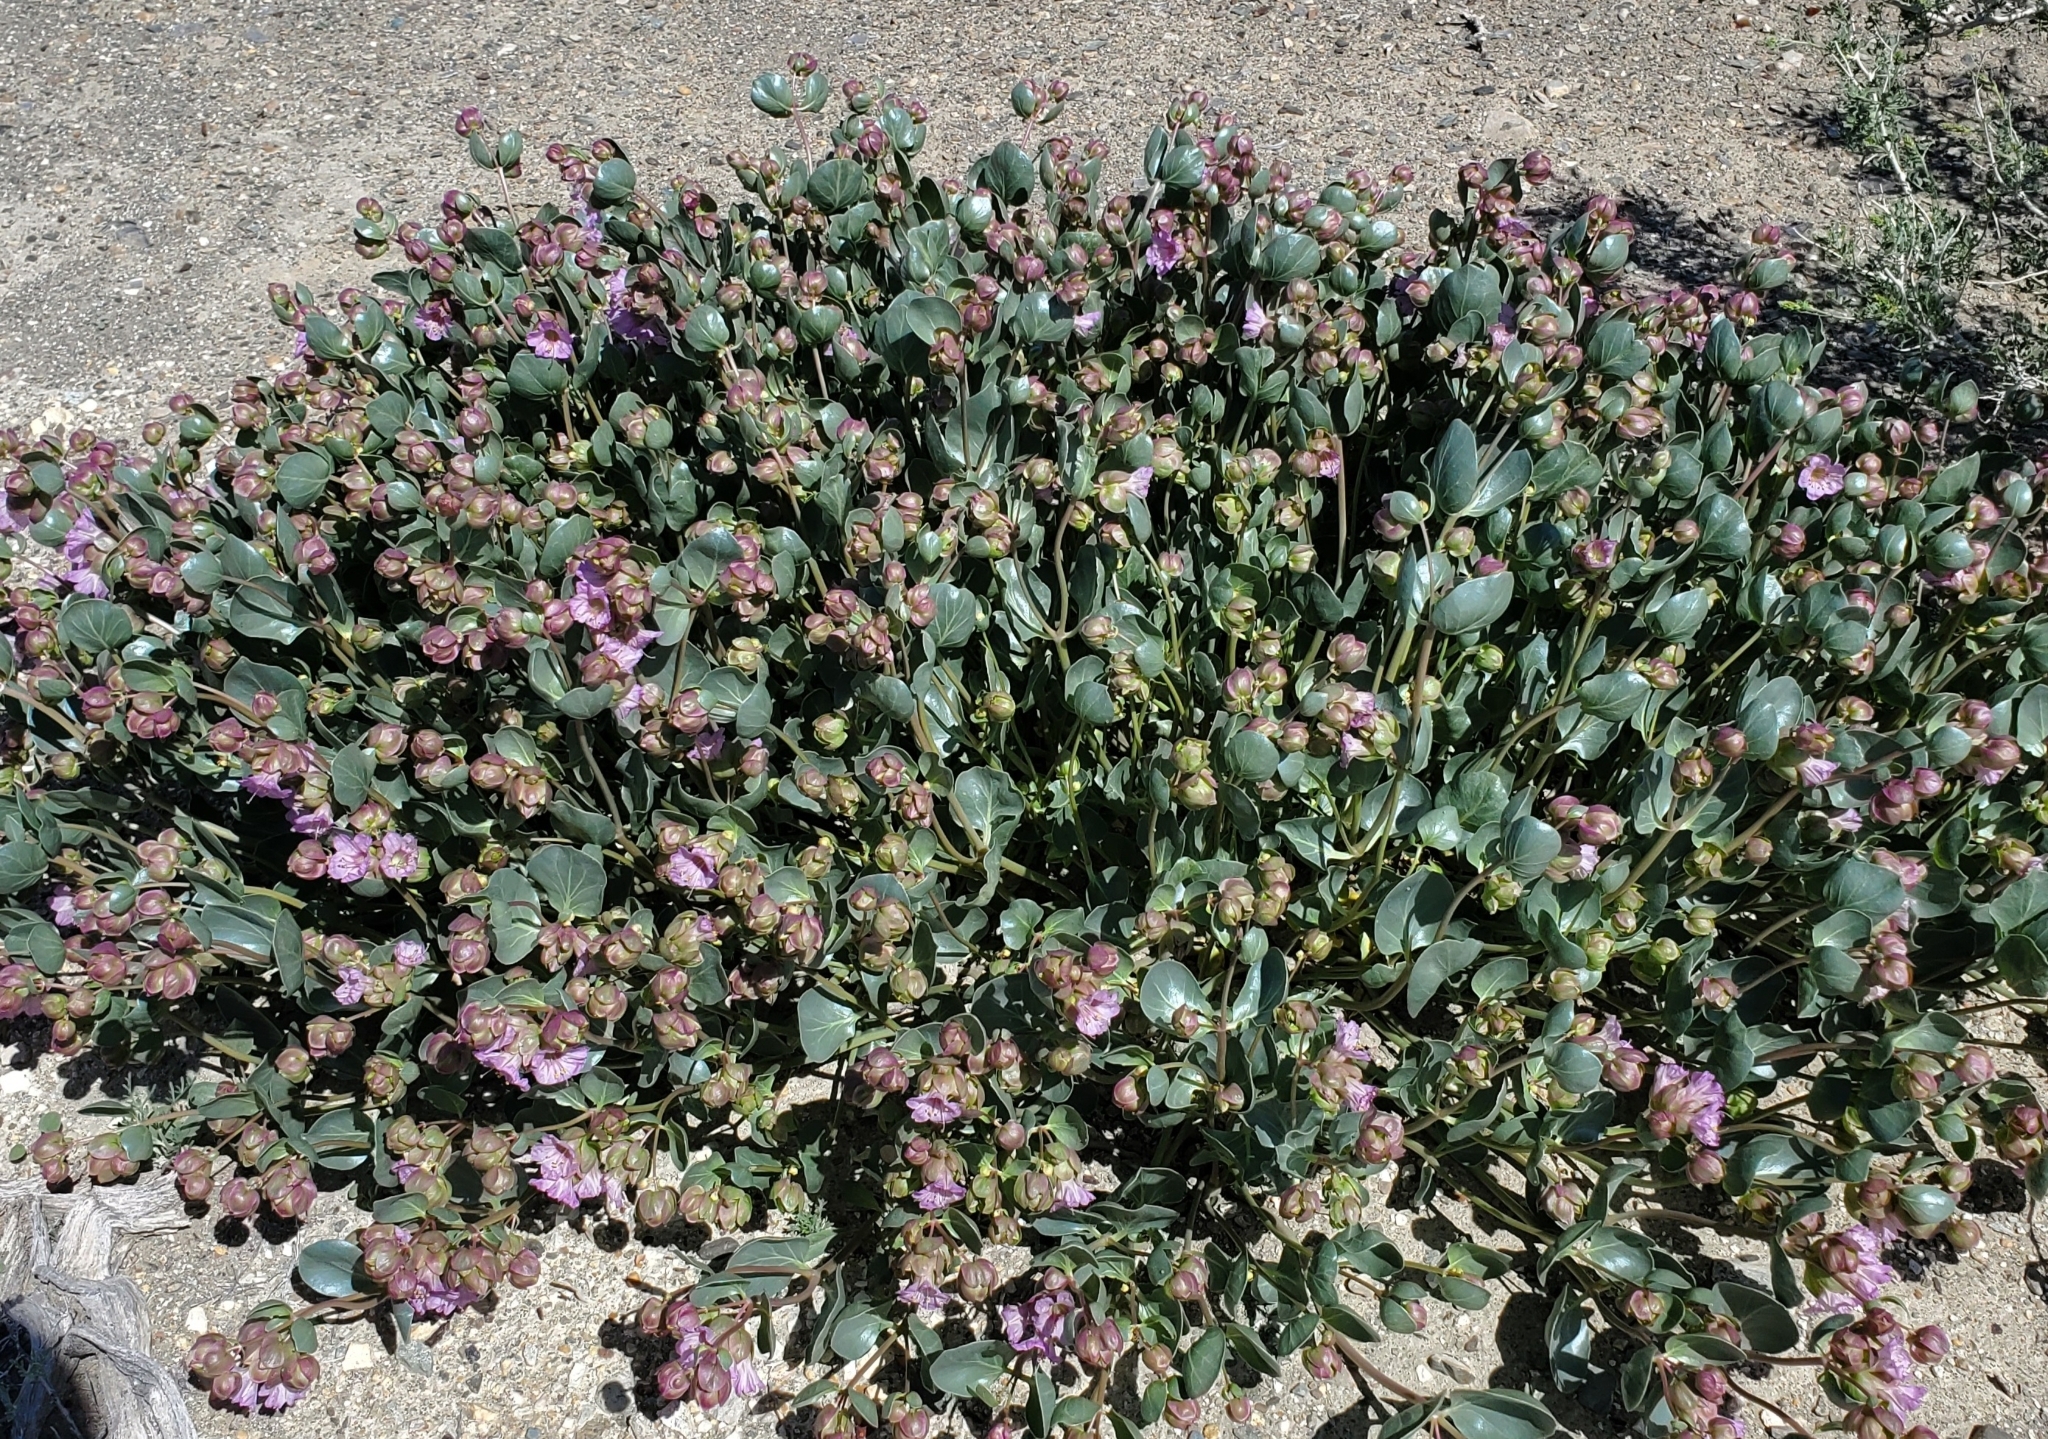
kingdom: Plantae
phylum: Tracheophyta
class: Magnoliopsida
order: Caryophyllales
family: Nyctaginaceae
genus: Mirabilis
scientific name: Mirabilis alipes
